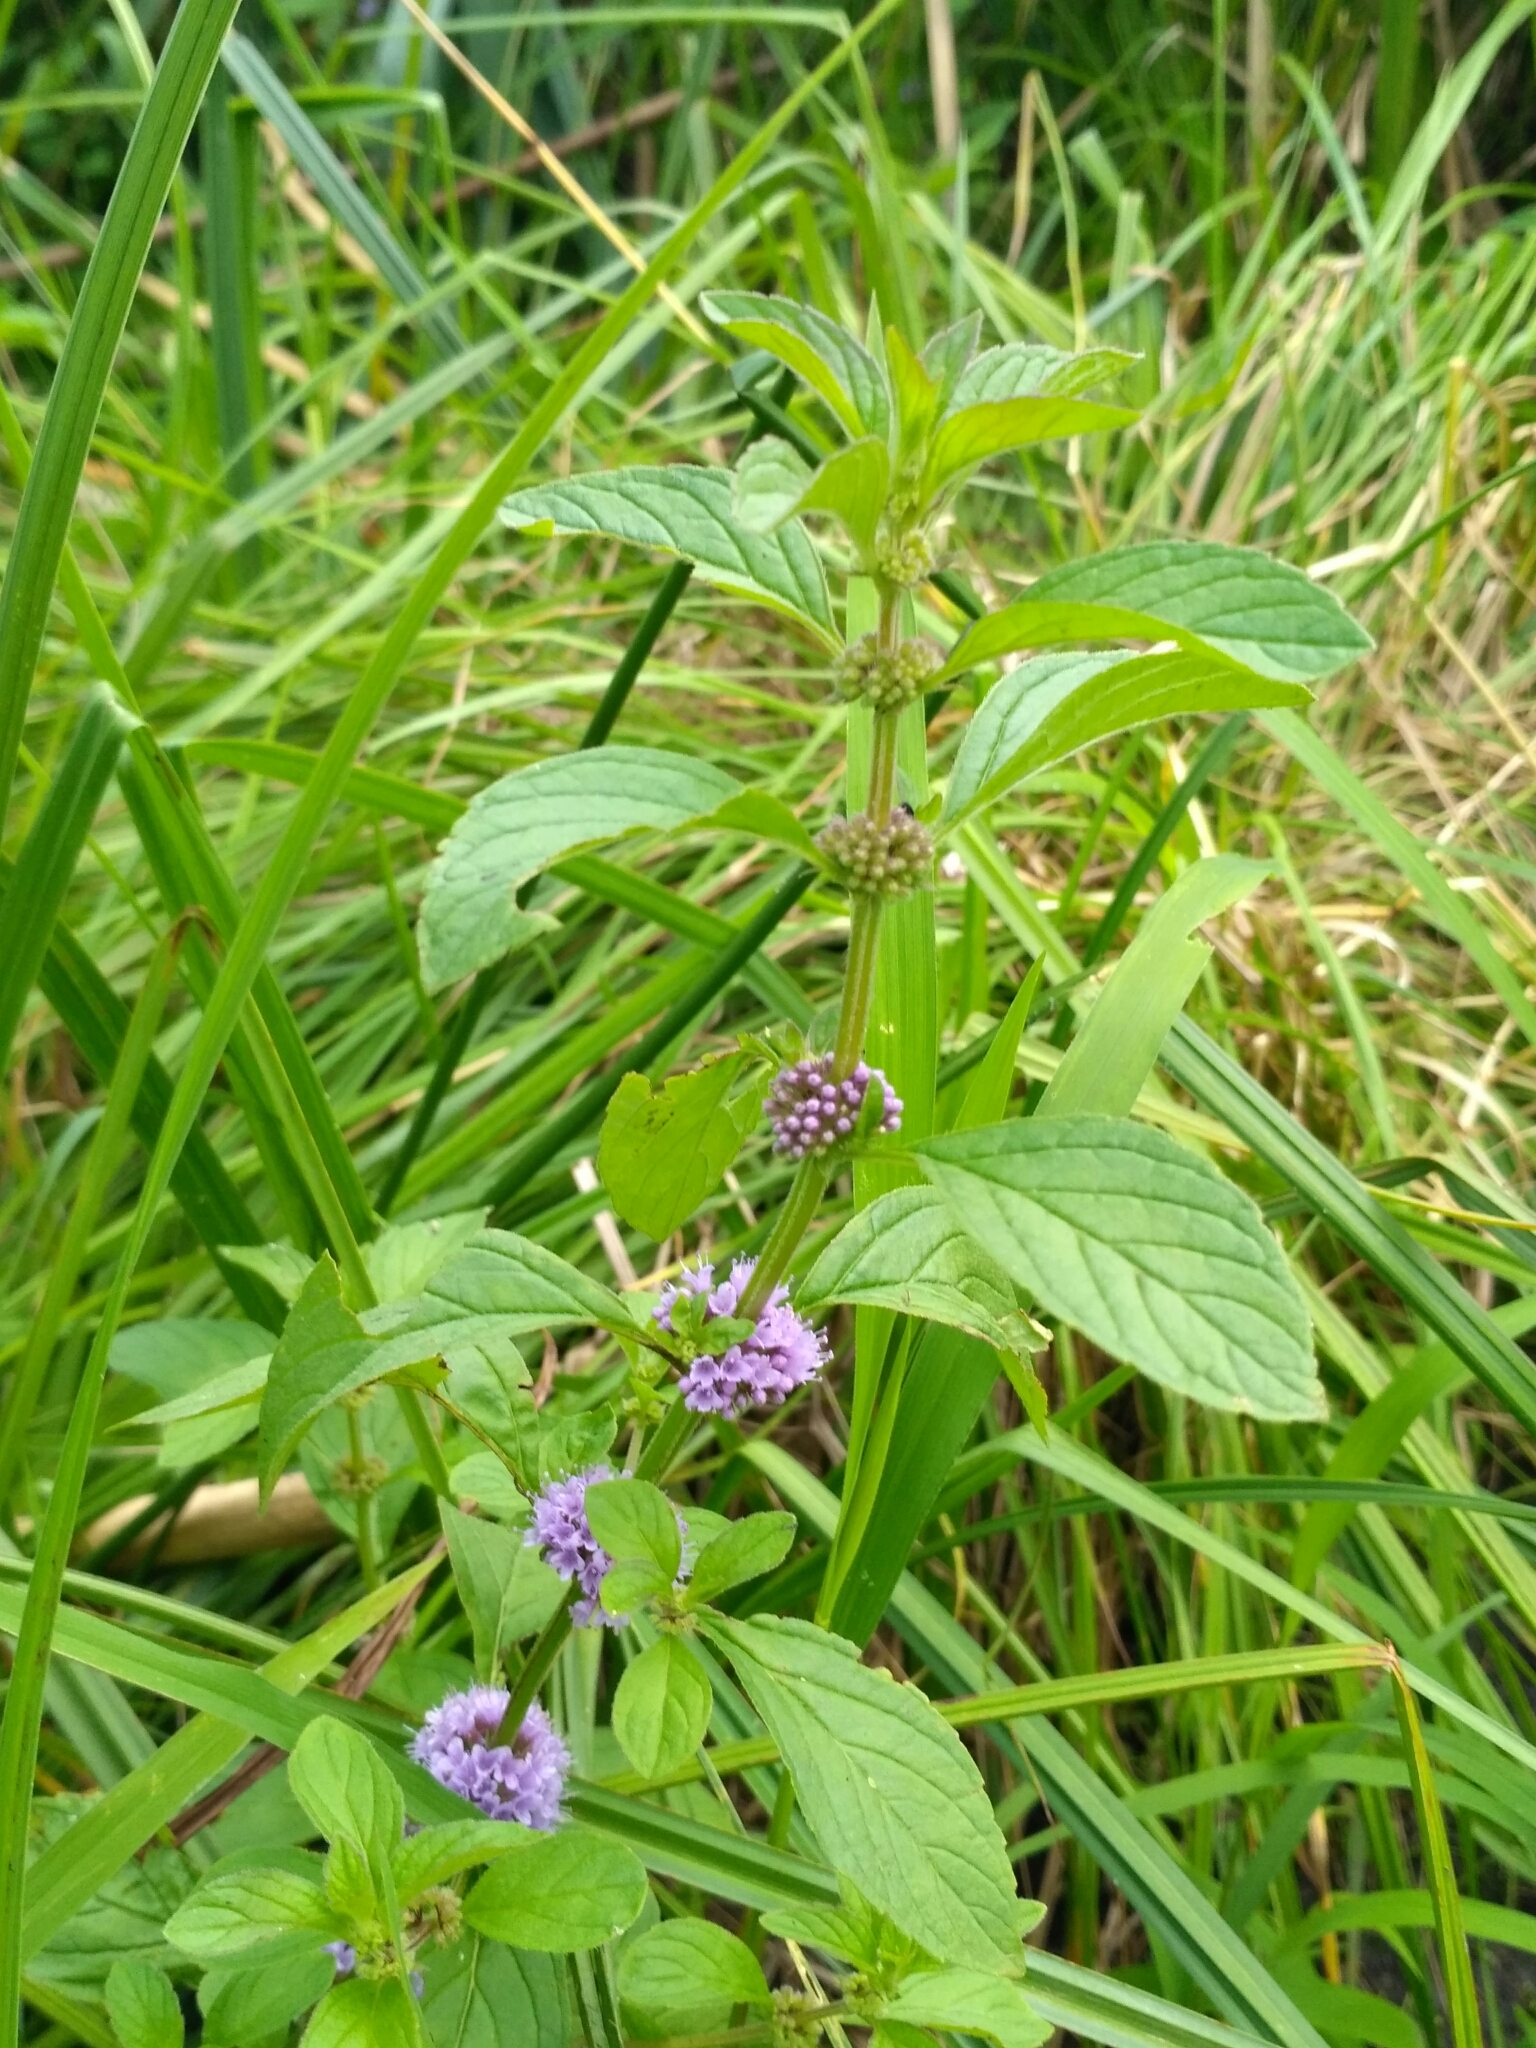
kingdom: Plantae
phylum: Tracheophyta
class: Magnoliopsida
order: Lamiales
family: Lamiaceae
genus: Mentha
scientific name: Mentha arvensis
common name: Corn mint
